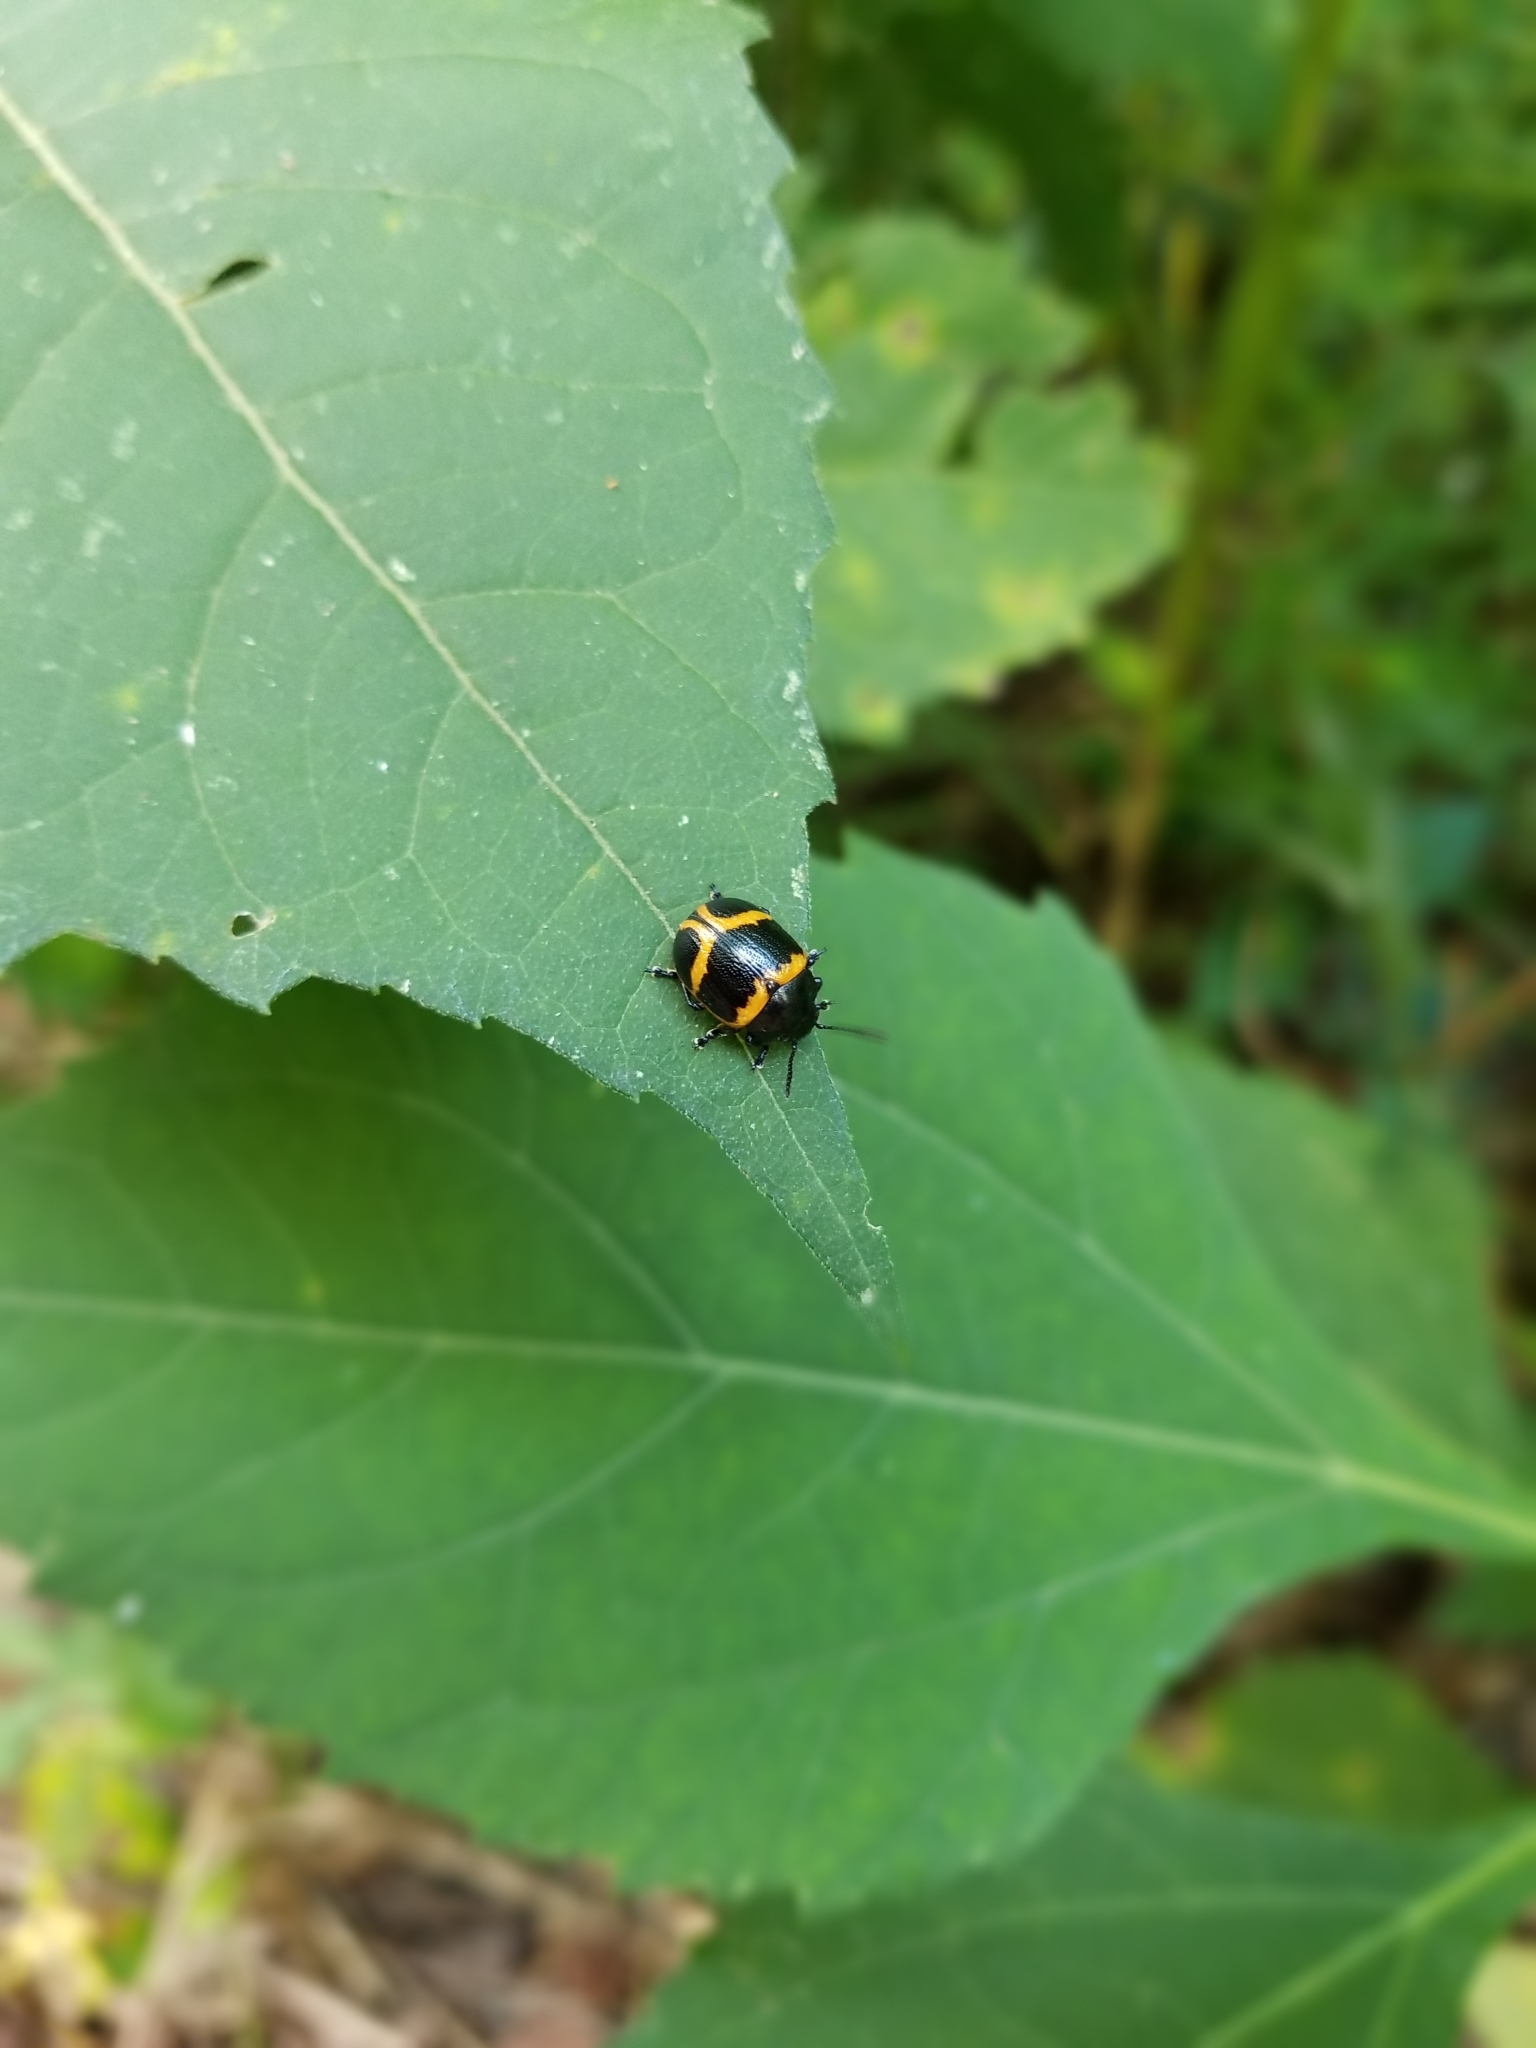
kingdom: Animalia
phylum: Arthropoda
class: Insecta
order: Coleoptera
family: Chrysomelidae
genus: Labidomera
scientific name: Labidomera clivicollis
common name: Swamp milkweed leaf beetle
